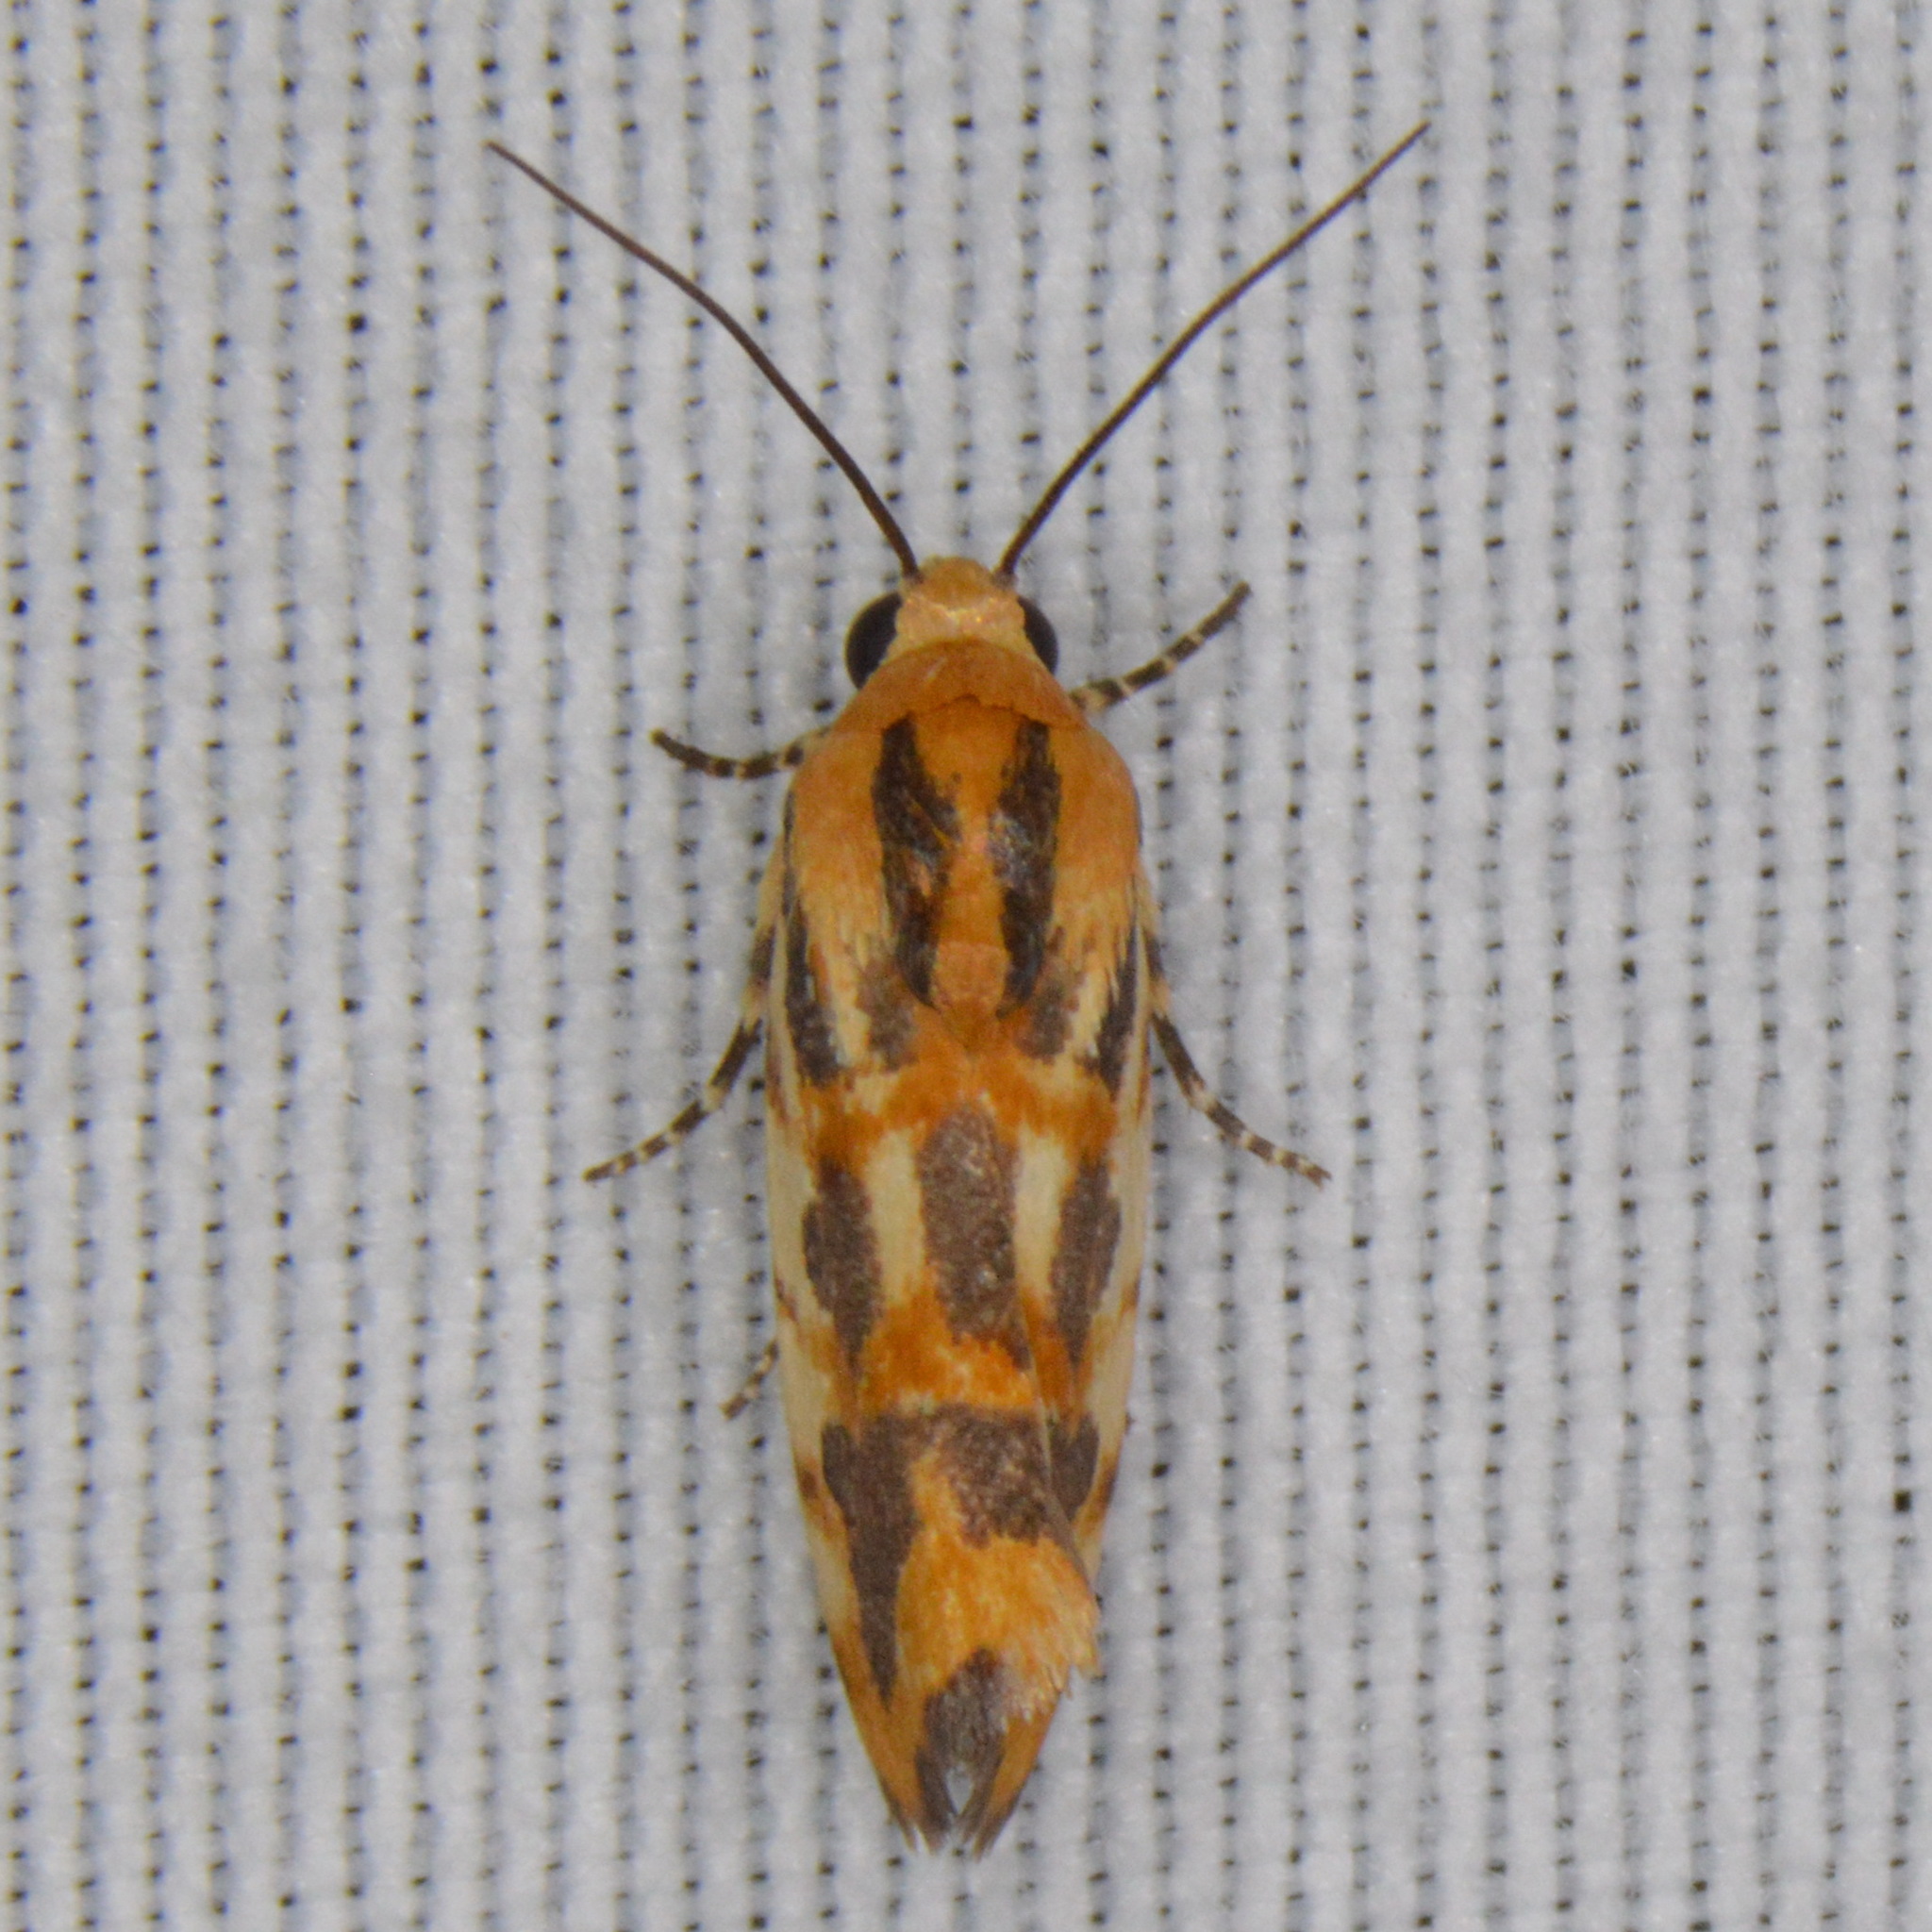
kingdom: Animalia
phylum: Arthropoda
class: Insecta
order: Lepidoptera
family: Noctuidae
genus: Acontia
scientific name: Acontia leo
